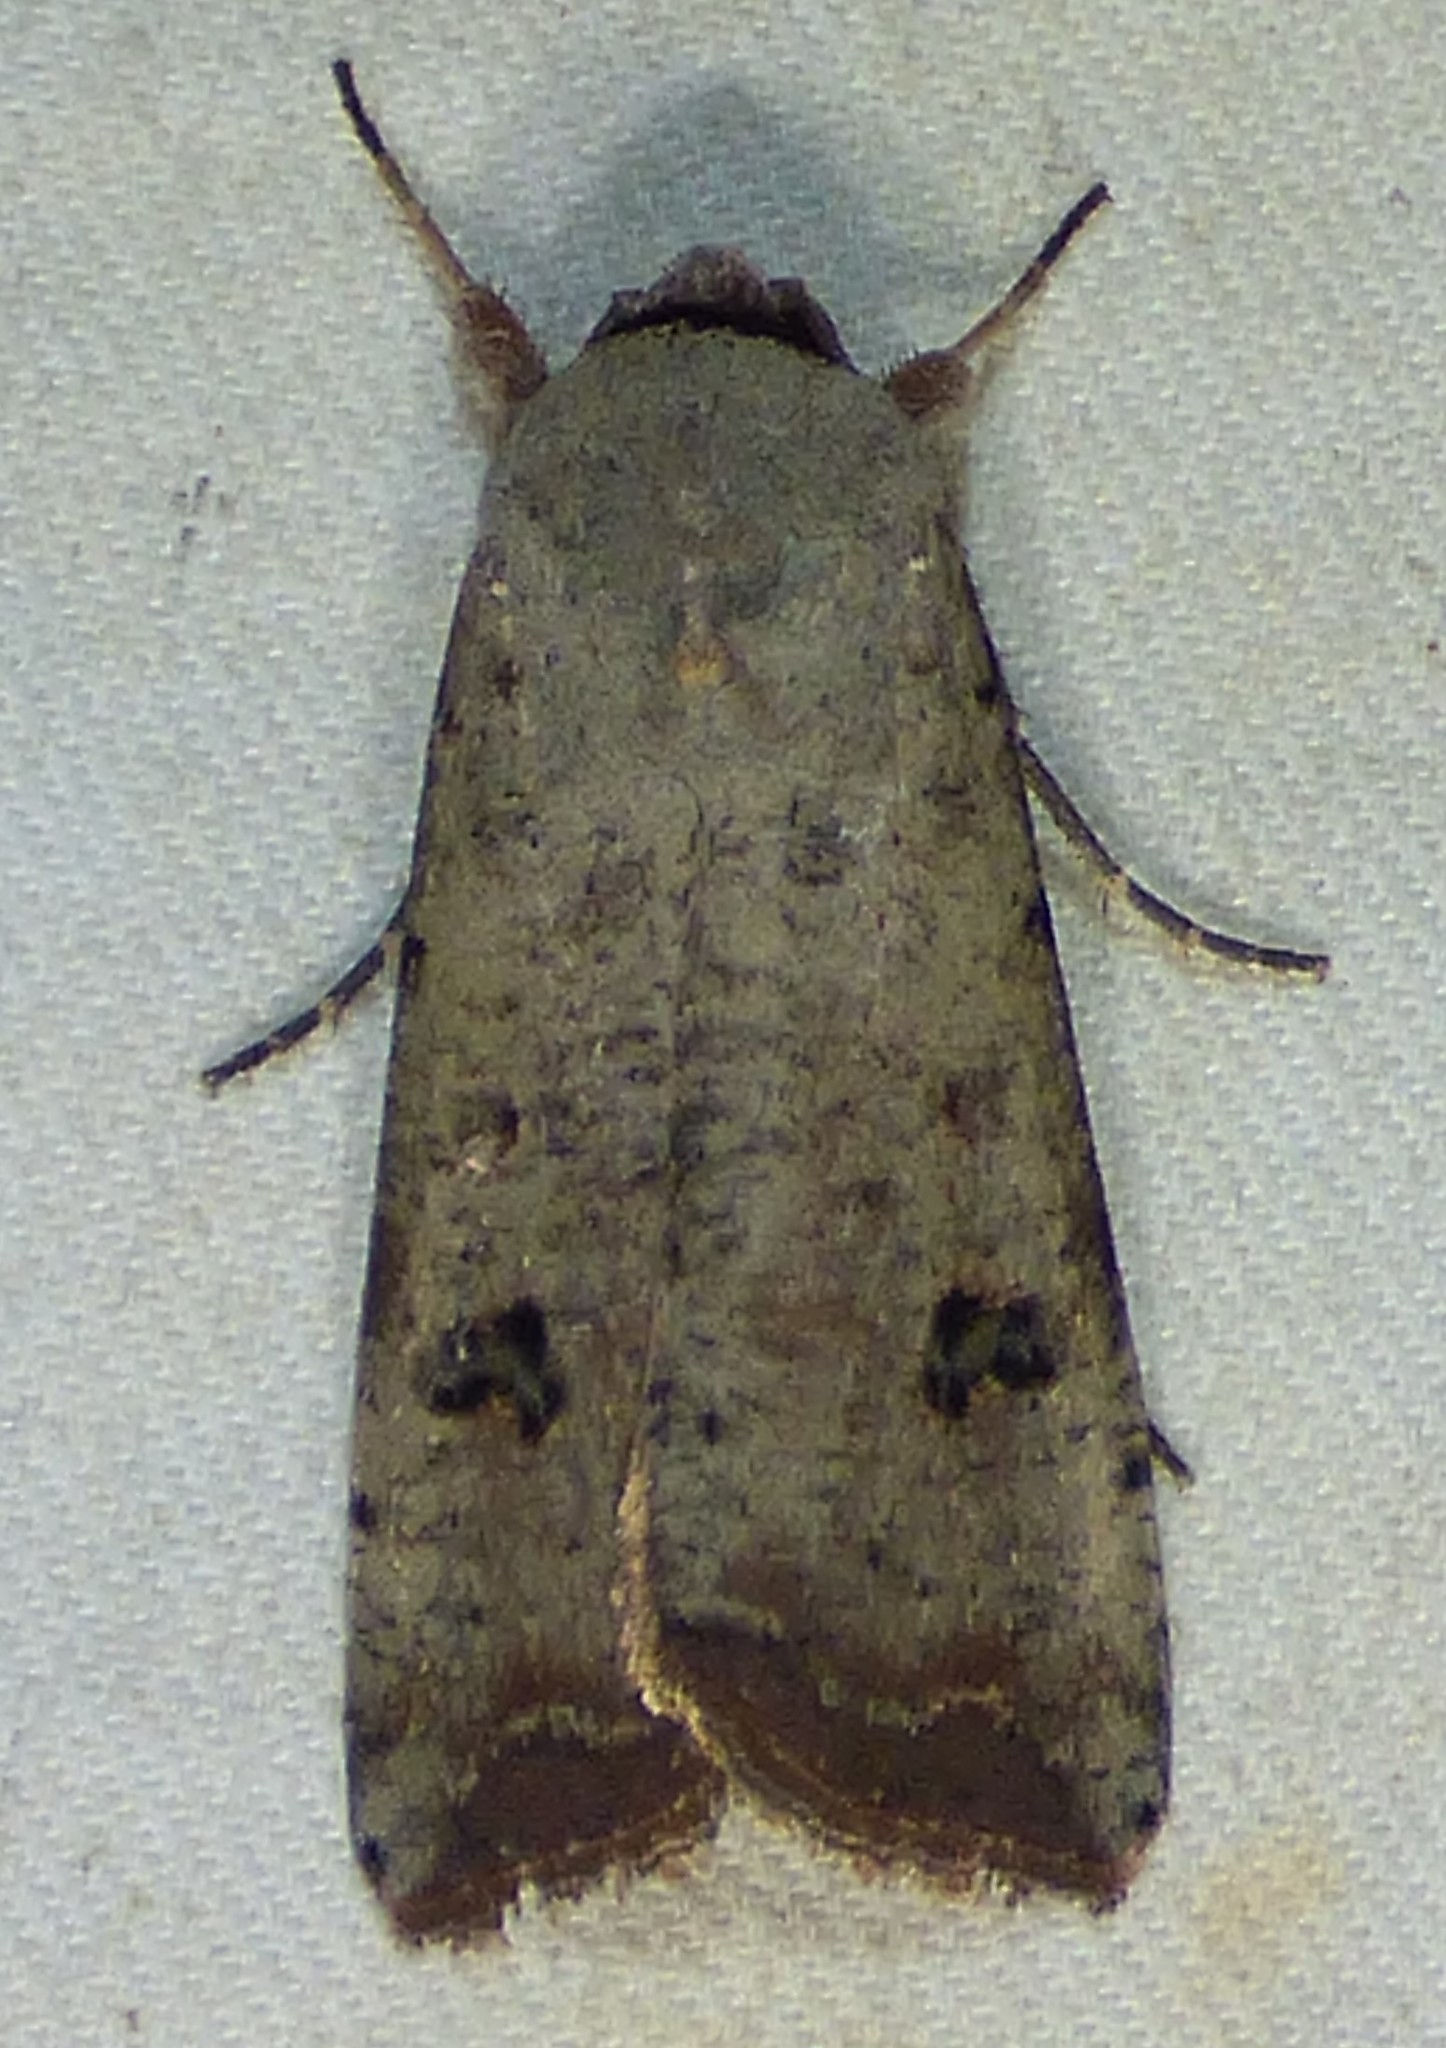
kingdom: Animalia
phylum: Arthropoda
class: Insecta
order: Lepidoptera
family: Noctuidae
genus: Anicla
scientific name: Anicla infecta
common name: Green cutworm
